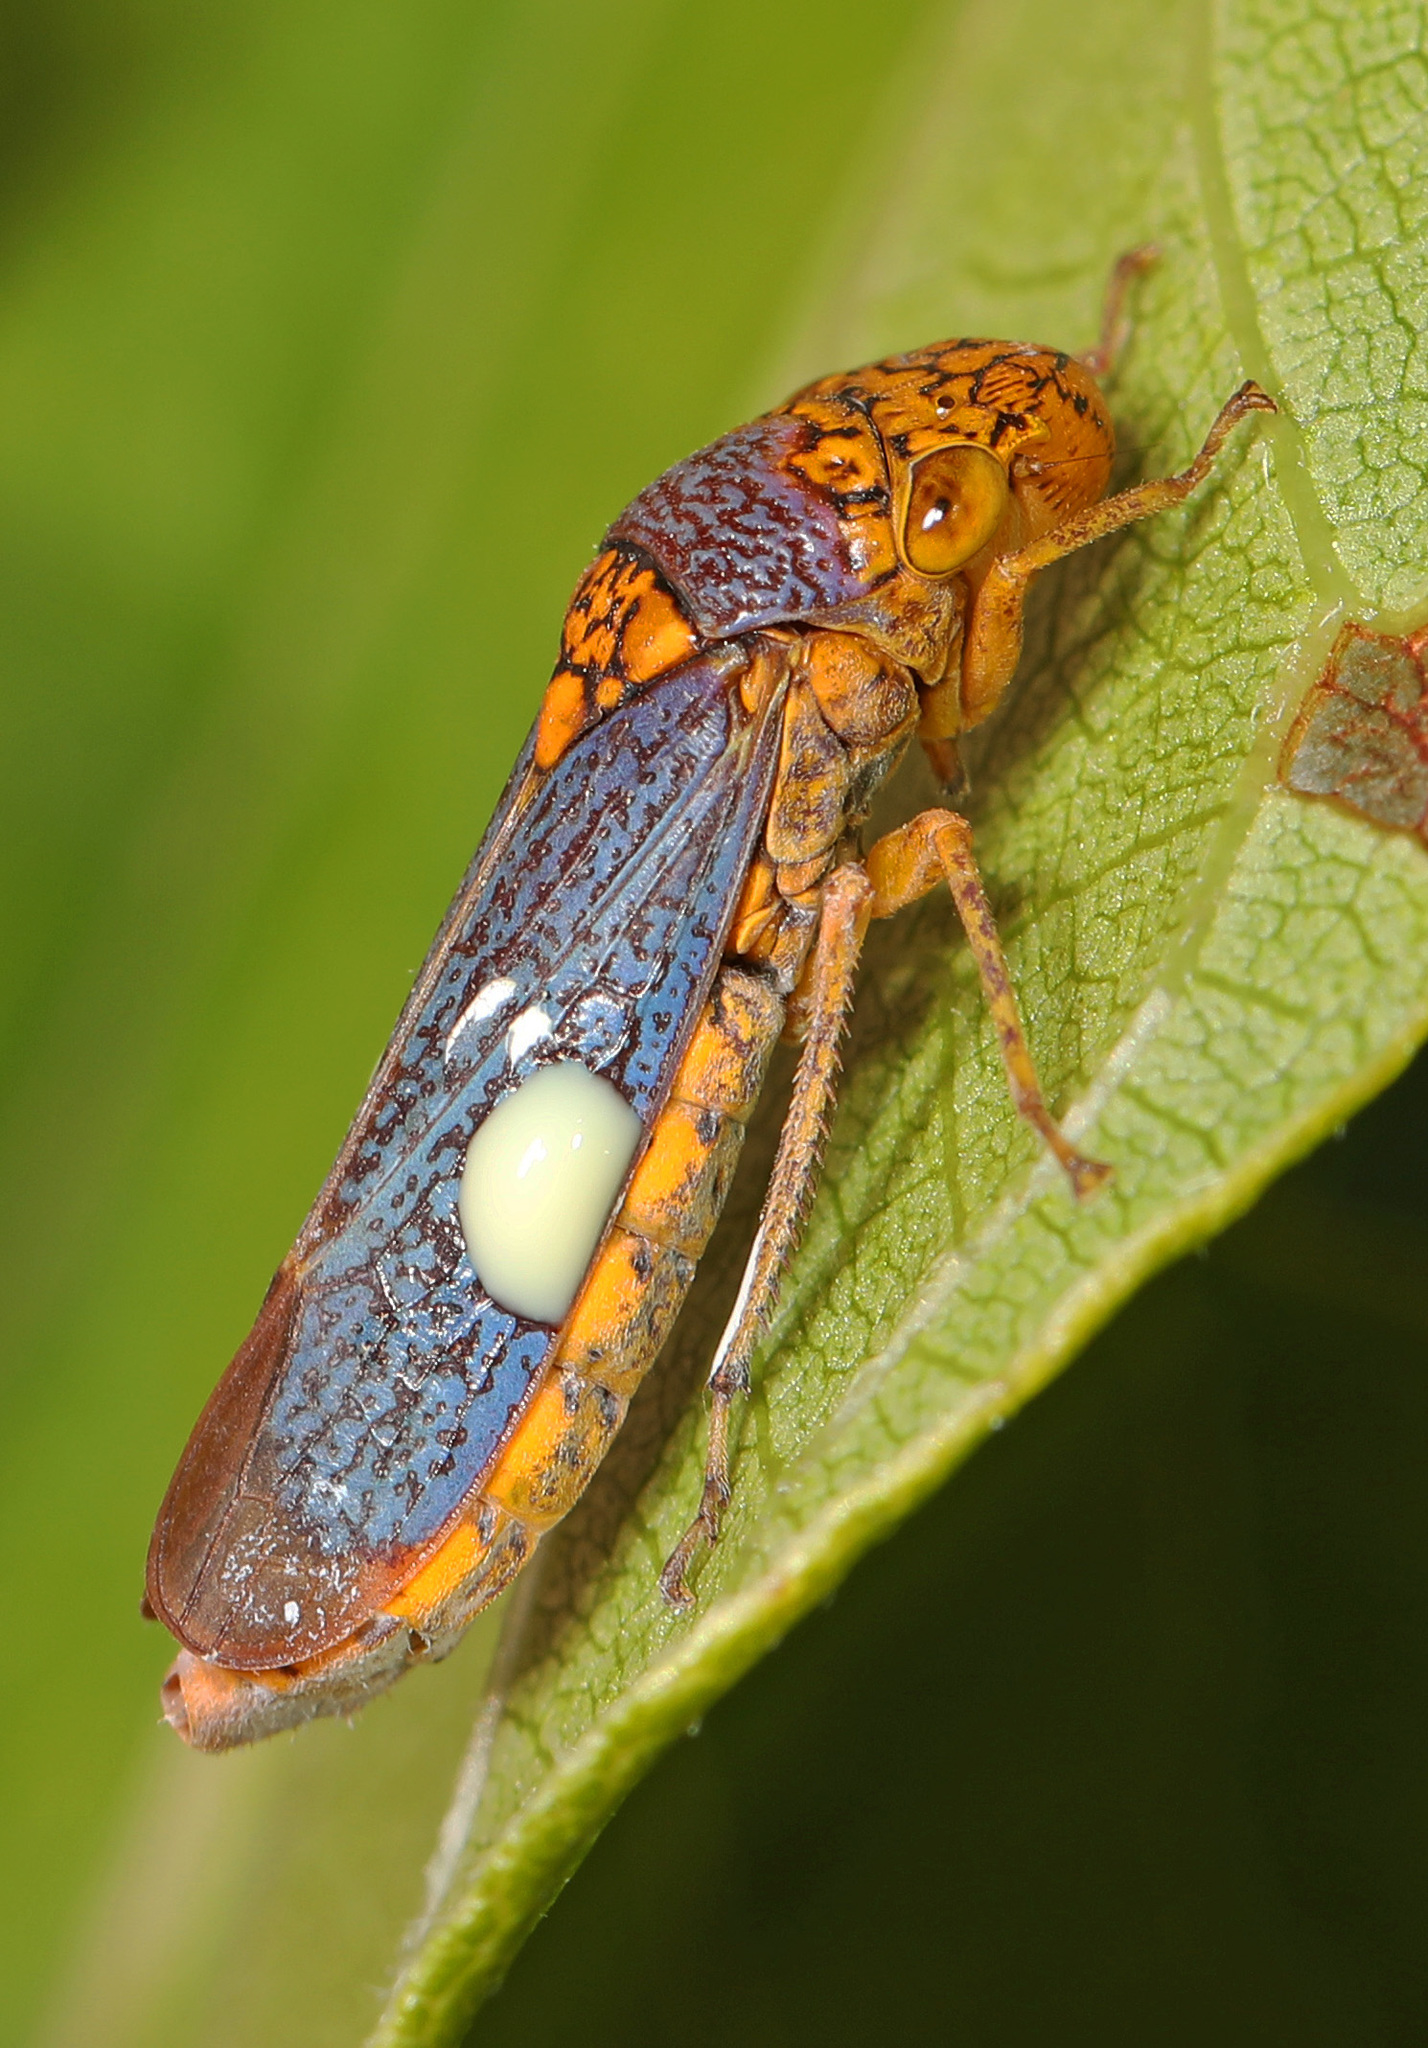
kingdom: Animalia
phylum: Arthropoda
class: Insecta
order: Hemiptera
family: Cicadellidae
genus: Oncometopia
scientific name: Oncometopia orbona
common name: Broad-headed sharpshooter
